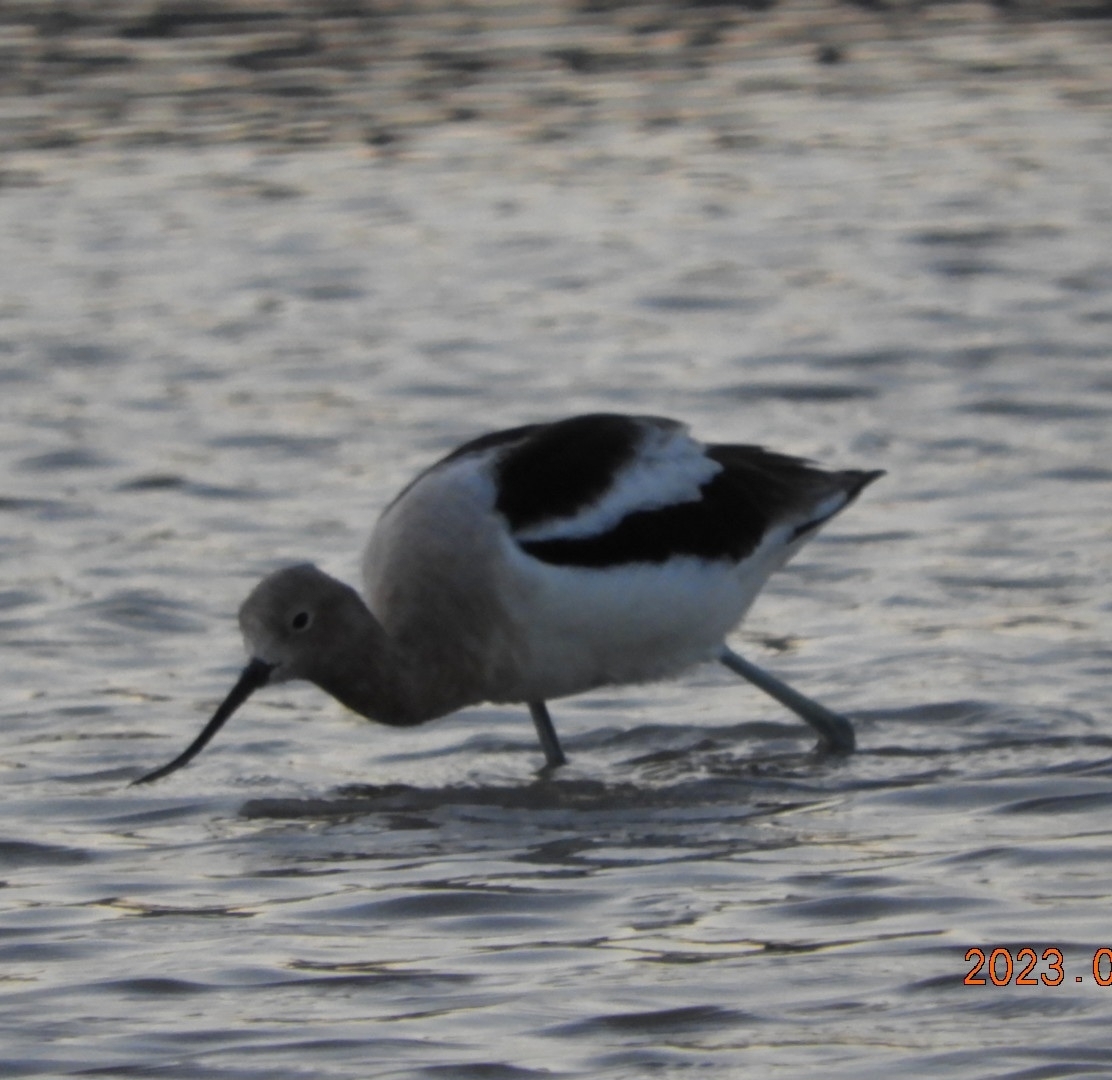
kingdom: Animalia
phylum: Chordata
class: Aves
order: Charadriiformes
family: Recurvirostridae
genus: Recurvirostra
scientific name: Recurvirostra americana
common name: American avocet
